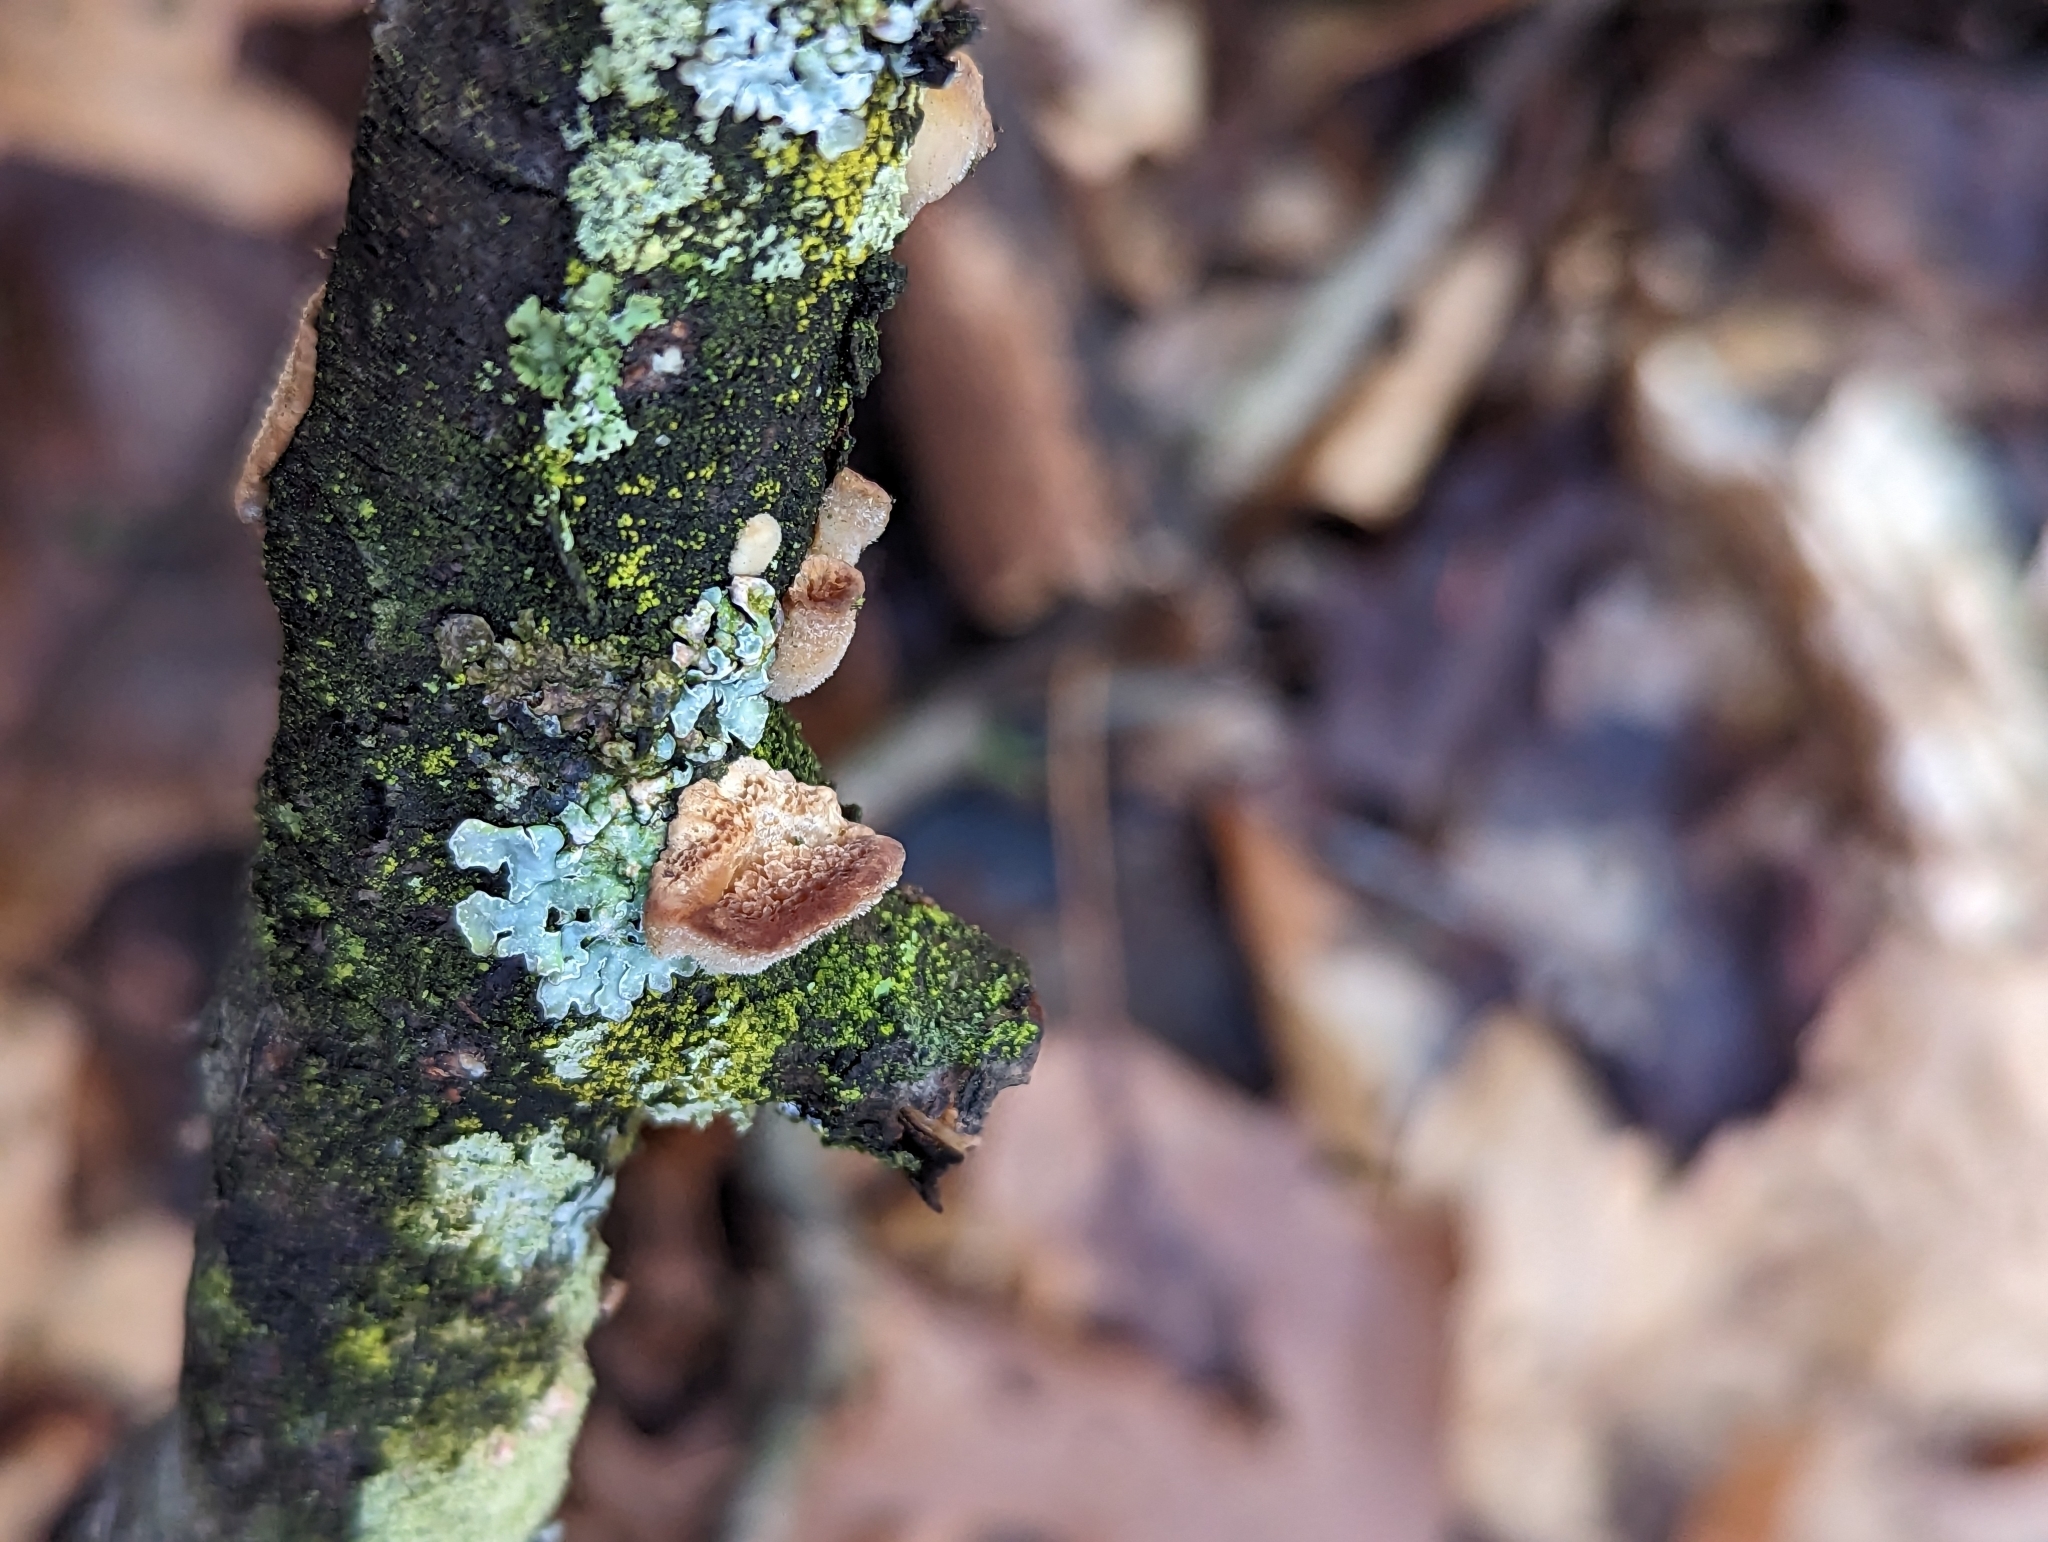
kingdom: Fungi
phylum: Basidiomycota
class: Agaricomycetes
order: Hymenochaetales
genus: Trichaptum
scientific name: Trichaptum biforme
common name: Violet-toothed polypore
